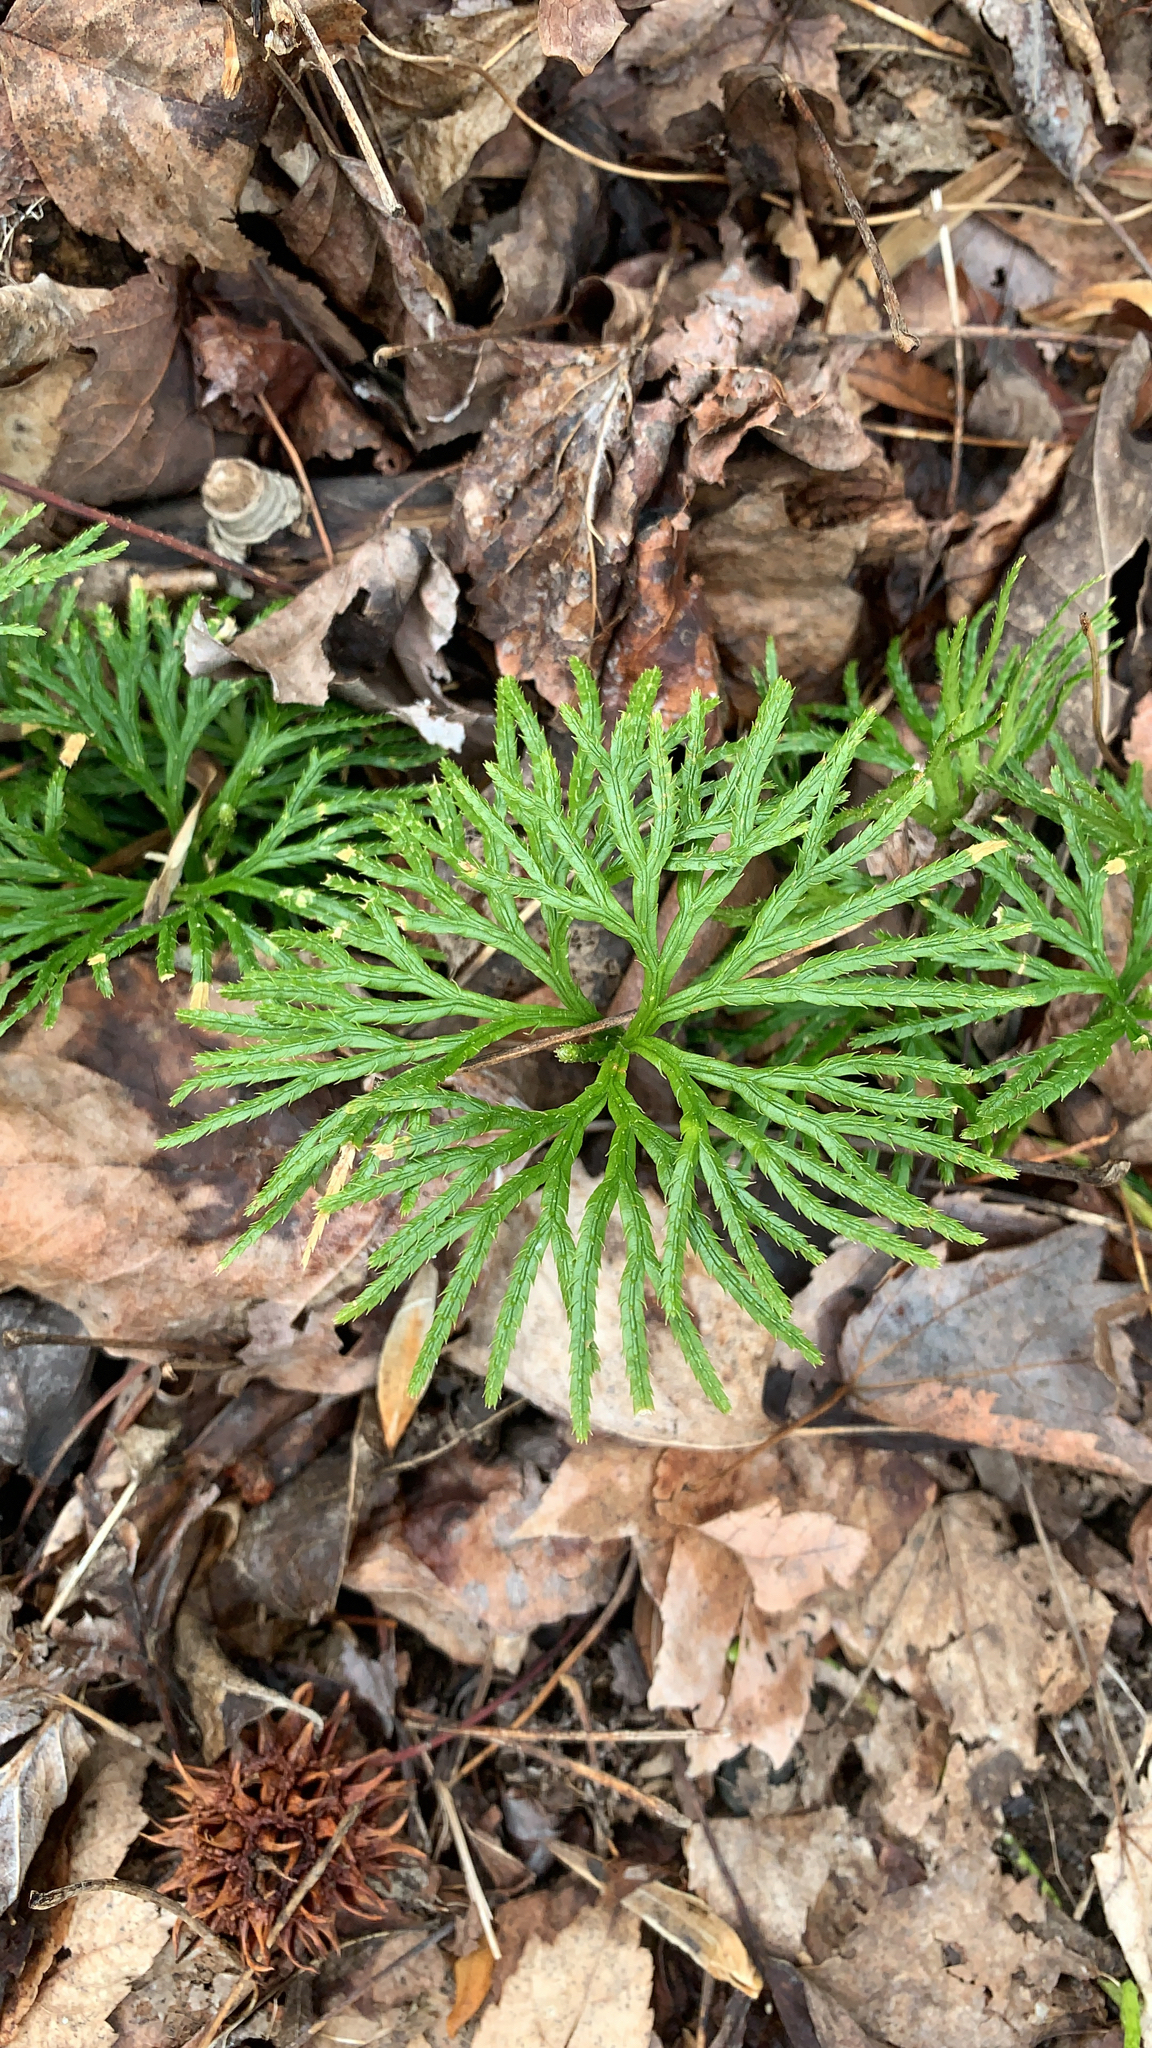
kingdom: Plantae
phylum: Tracheophyta
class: Lycopodiopsida
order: Lycopodiales
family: Lycopodiaceae
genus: Diphasiastrum
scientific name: Diphasiastrum digitatum
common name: Southern running-pine
